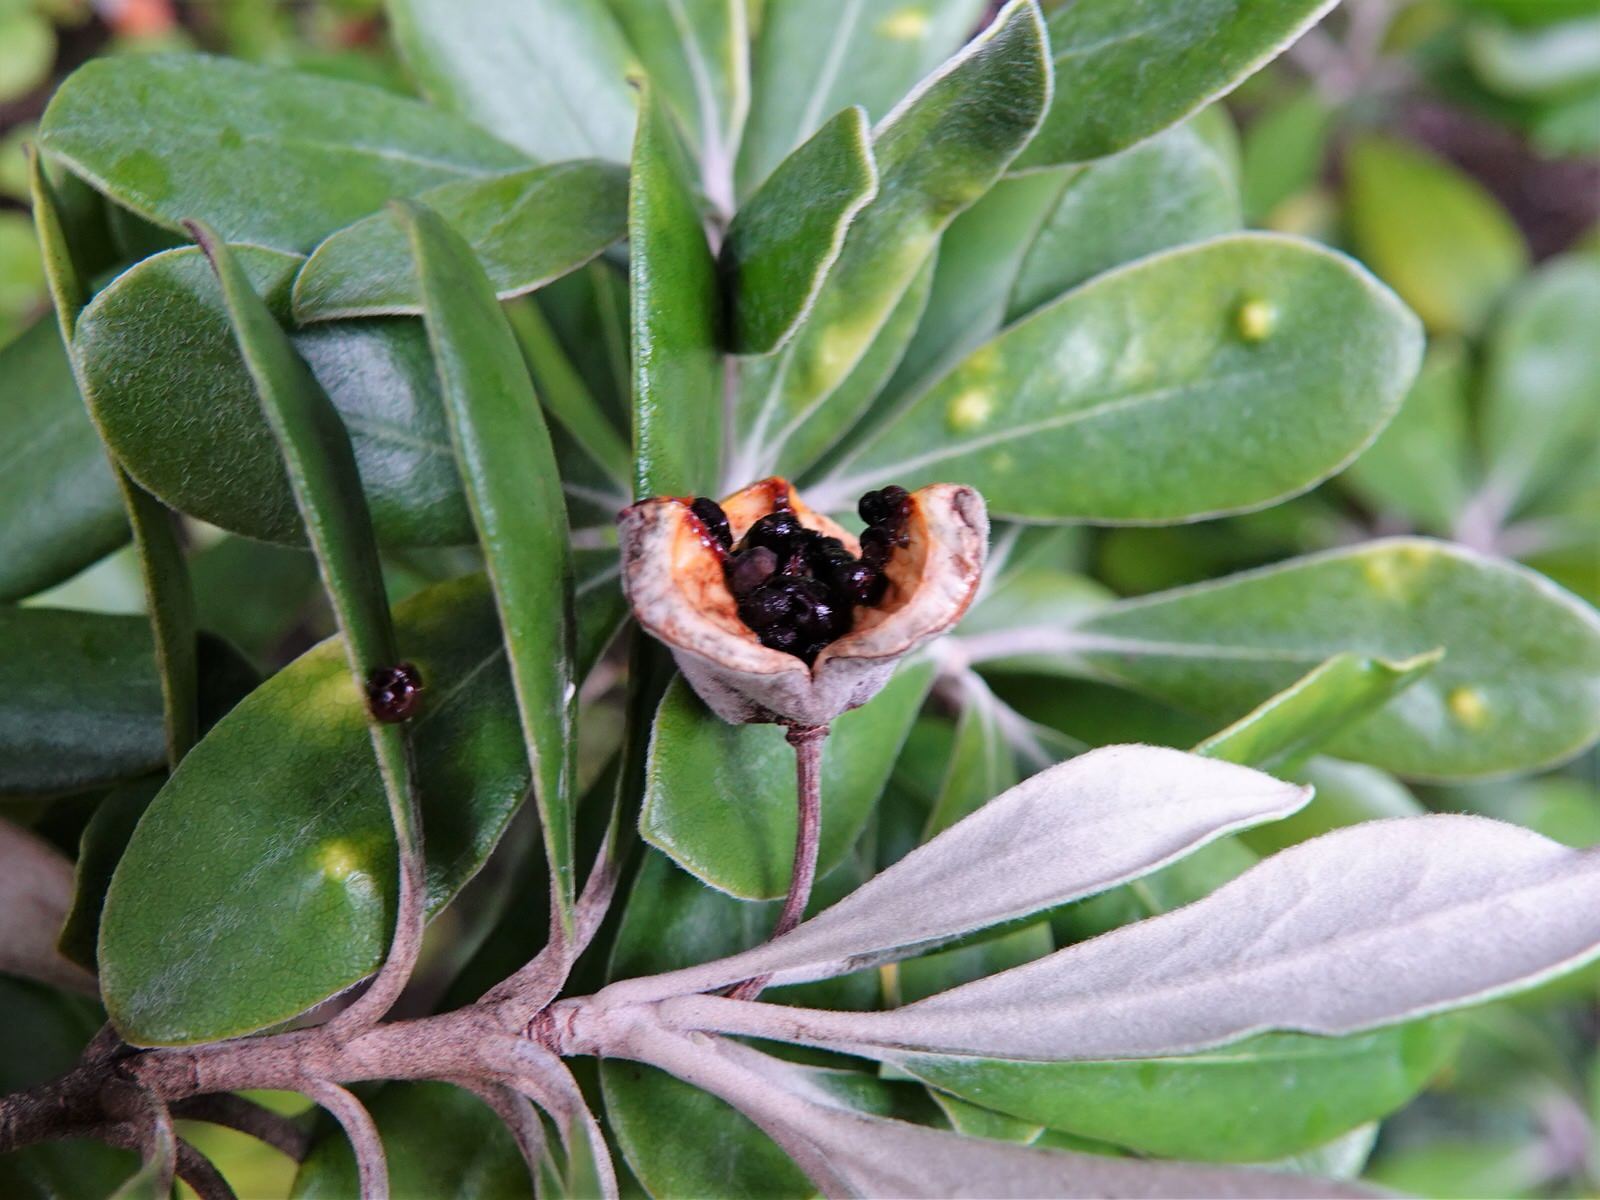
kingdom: Plantae
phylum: Tracheophyta
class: Magnoliopsida
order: Apiales
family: Pittosporaceae
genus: Pittosporum
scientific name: Pittosporum crassifolium
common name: Karo
